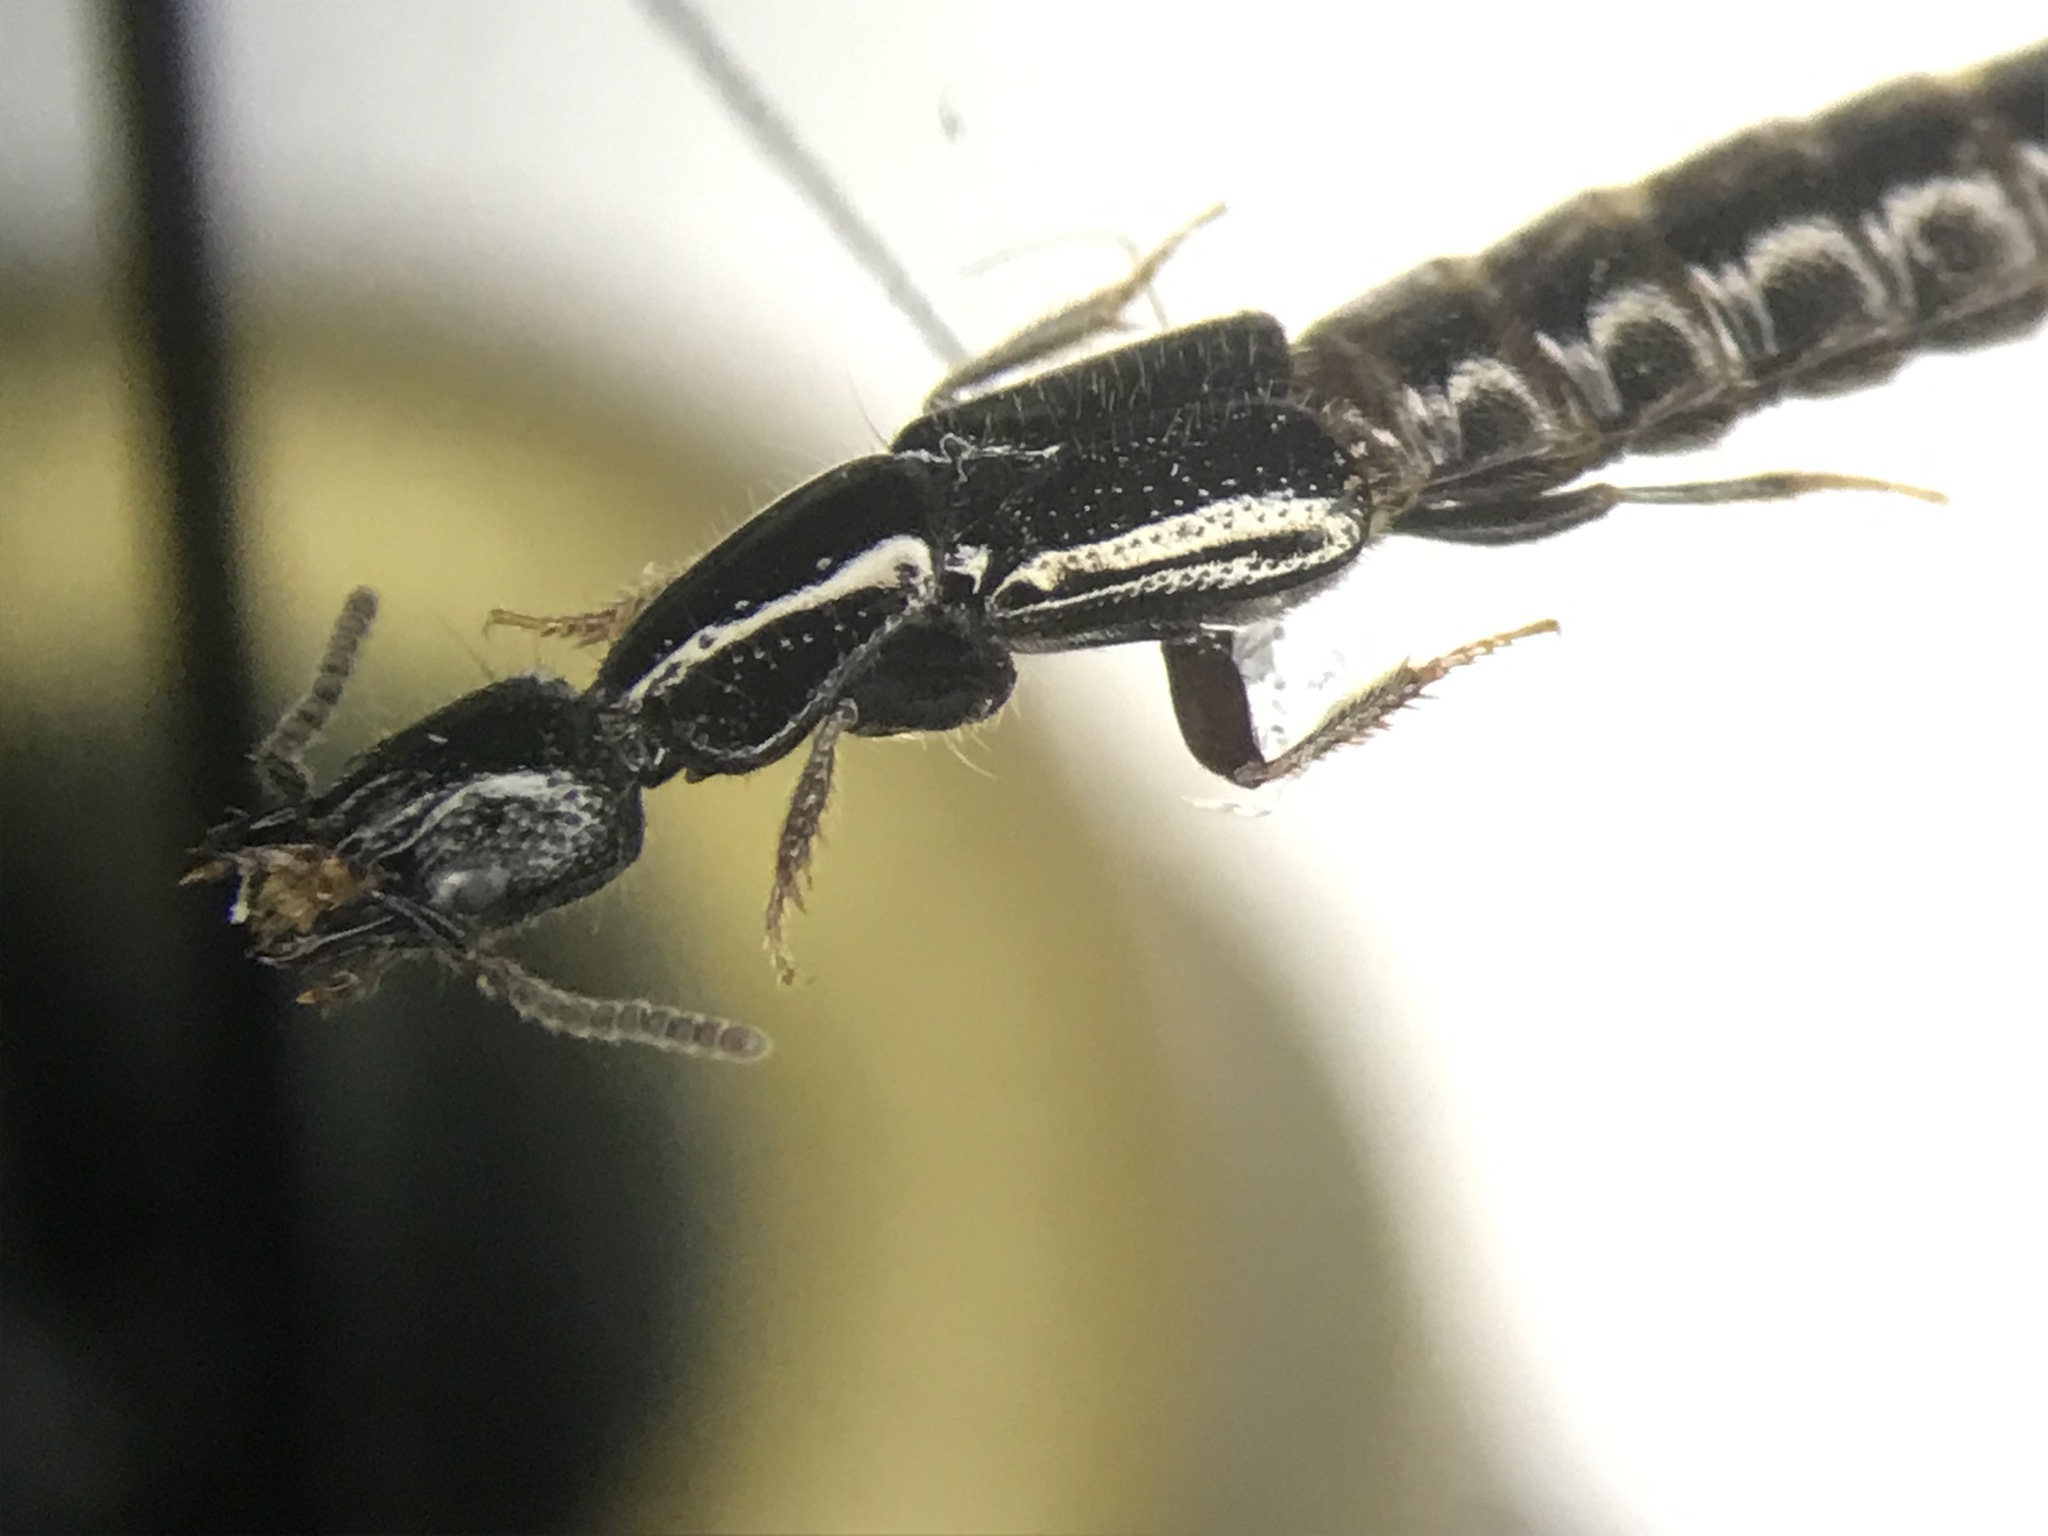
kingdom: Animalia
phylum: Arthropoda
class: Insecta
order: Coleoptera
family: Staphylinidae
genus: Gyrohypnus
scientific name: Gyrohypnus fracticornis
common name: Staph beetle
